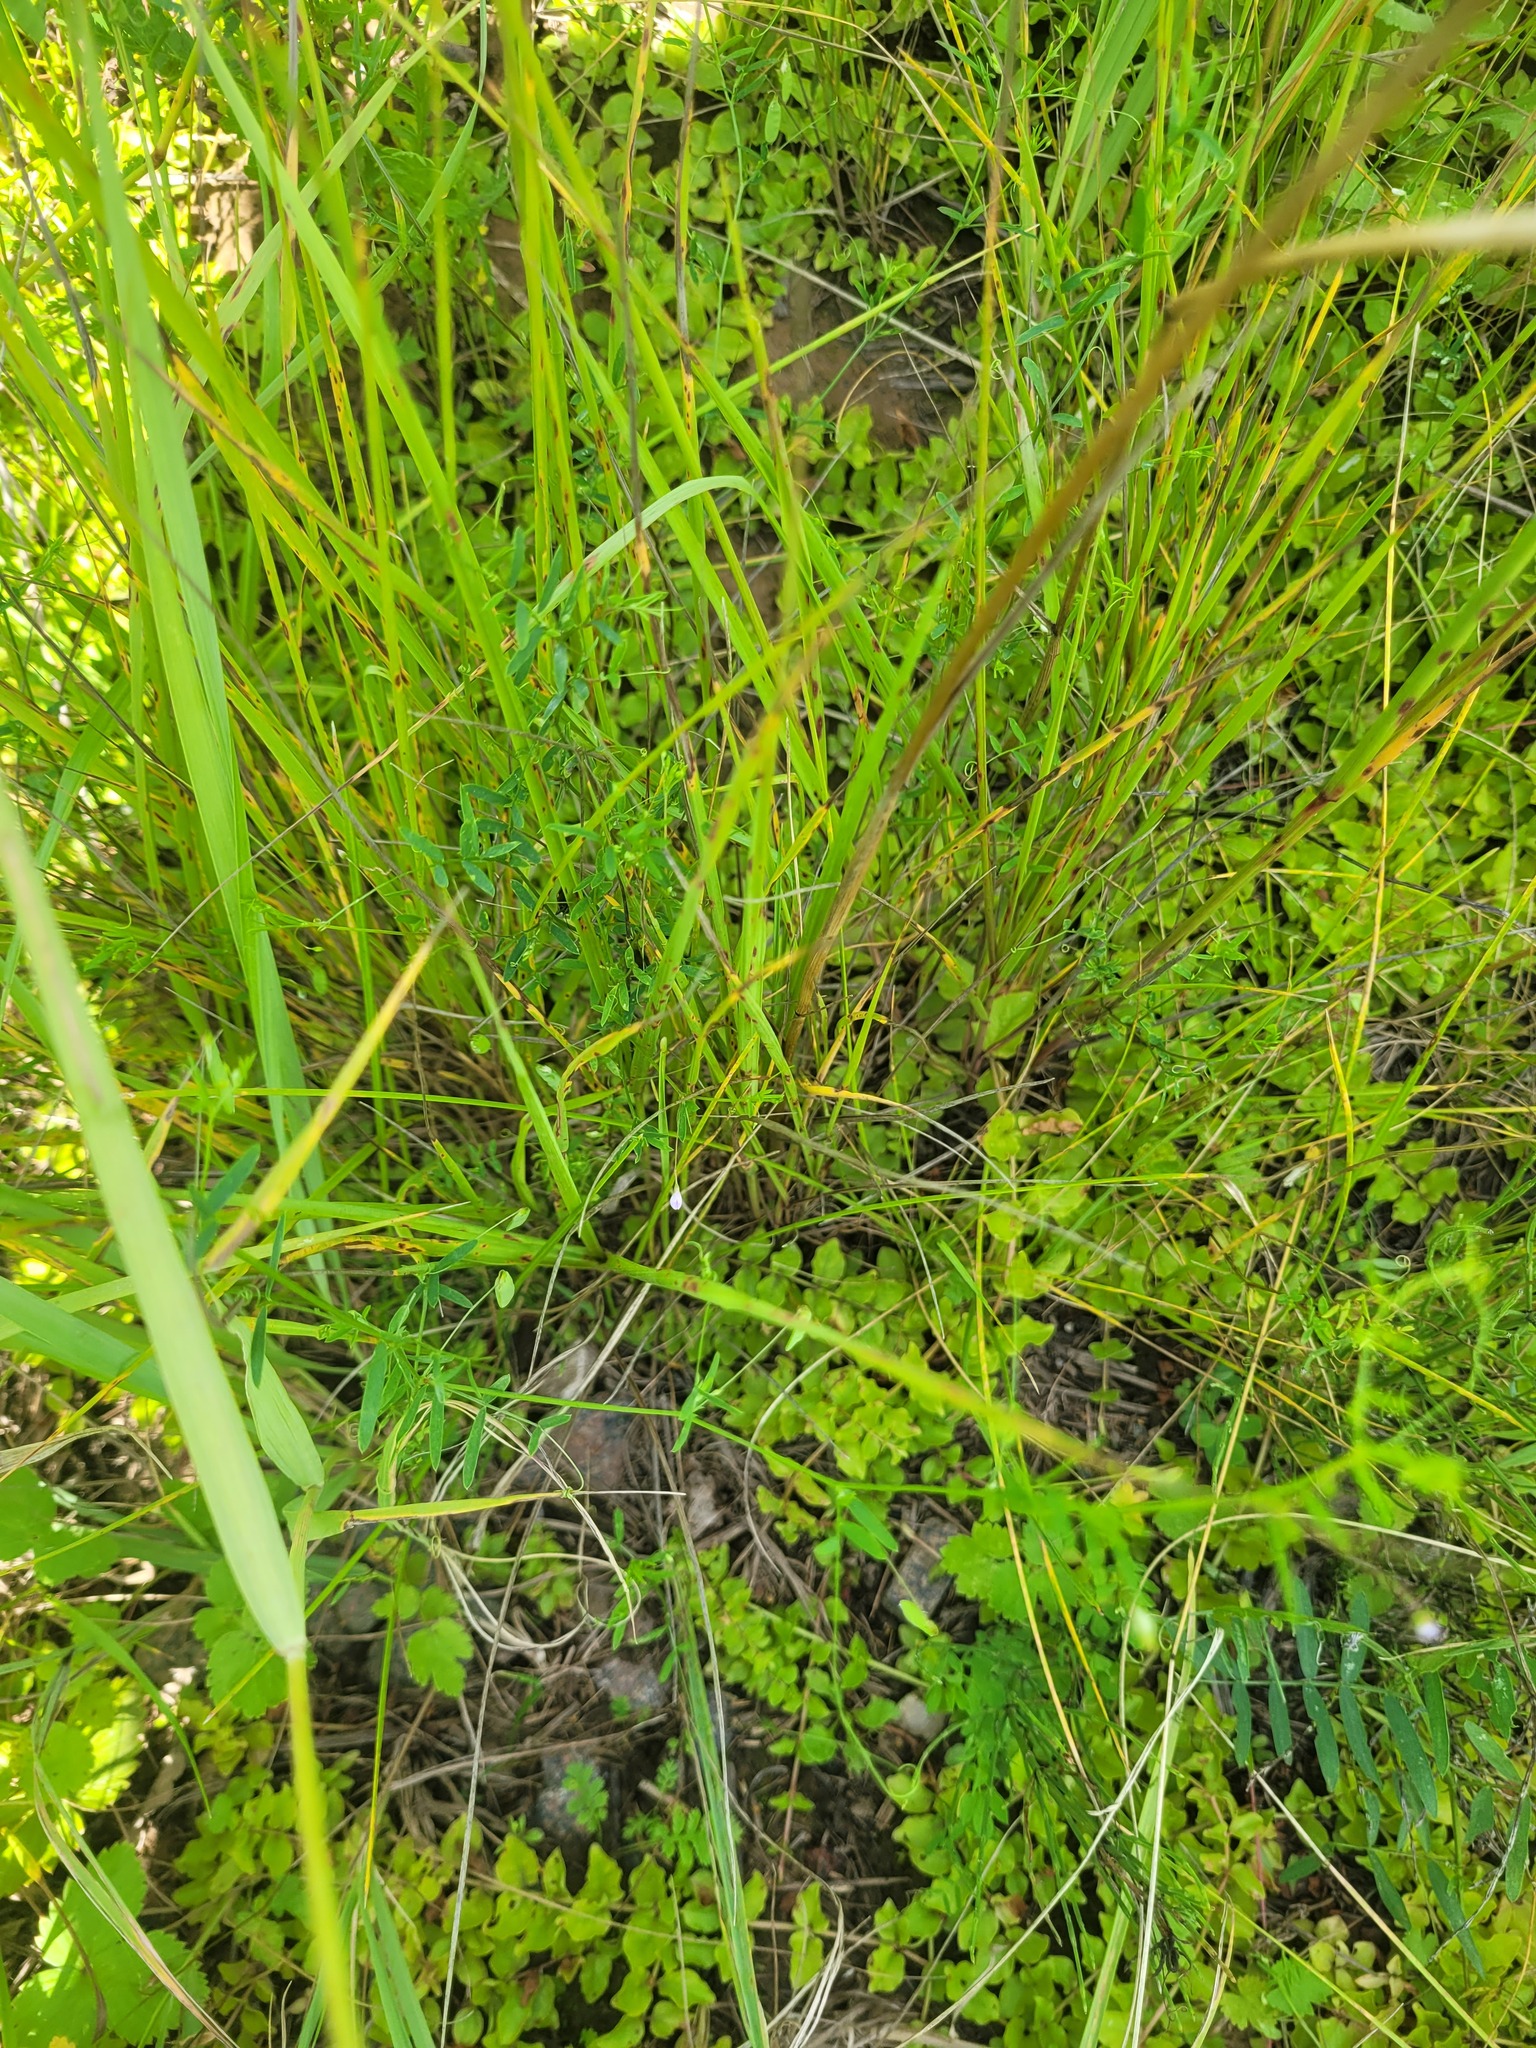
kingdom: Plantae
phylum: Tracheophyta
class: Magnoliopsida
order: Fabales
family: Fabaceae
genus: Vicia
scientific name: Vicia tetrasperma
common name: Smooth tare
